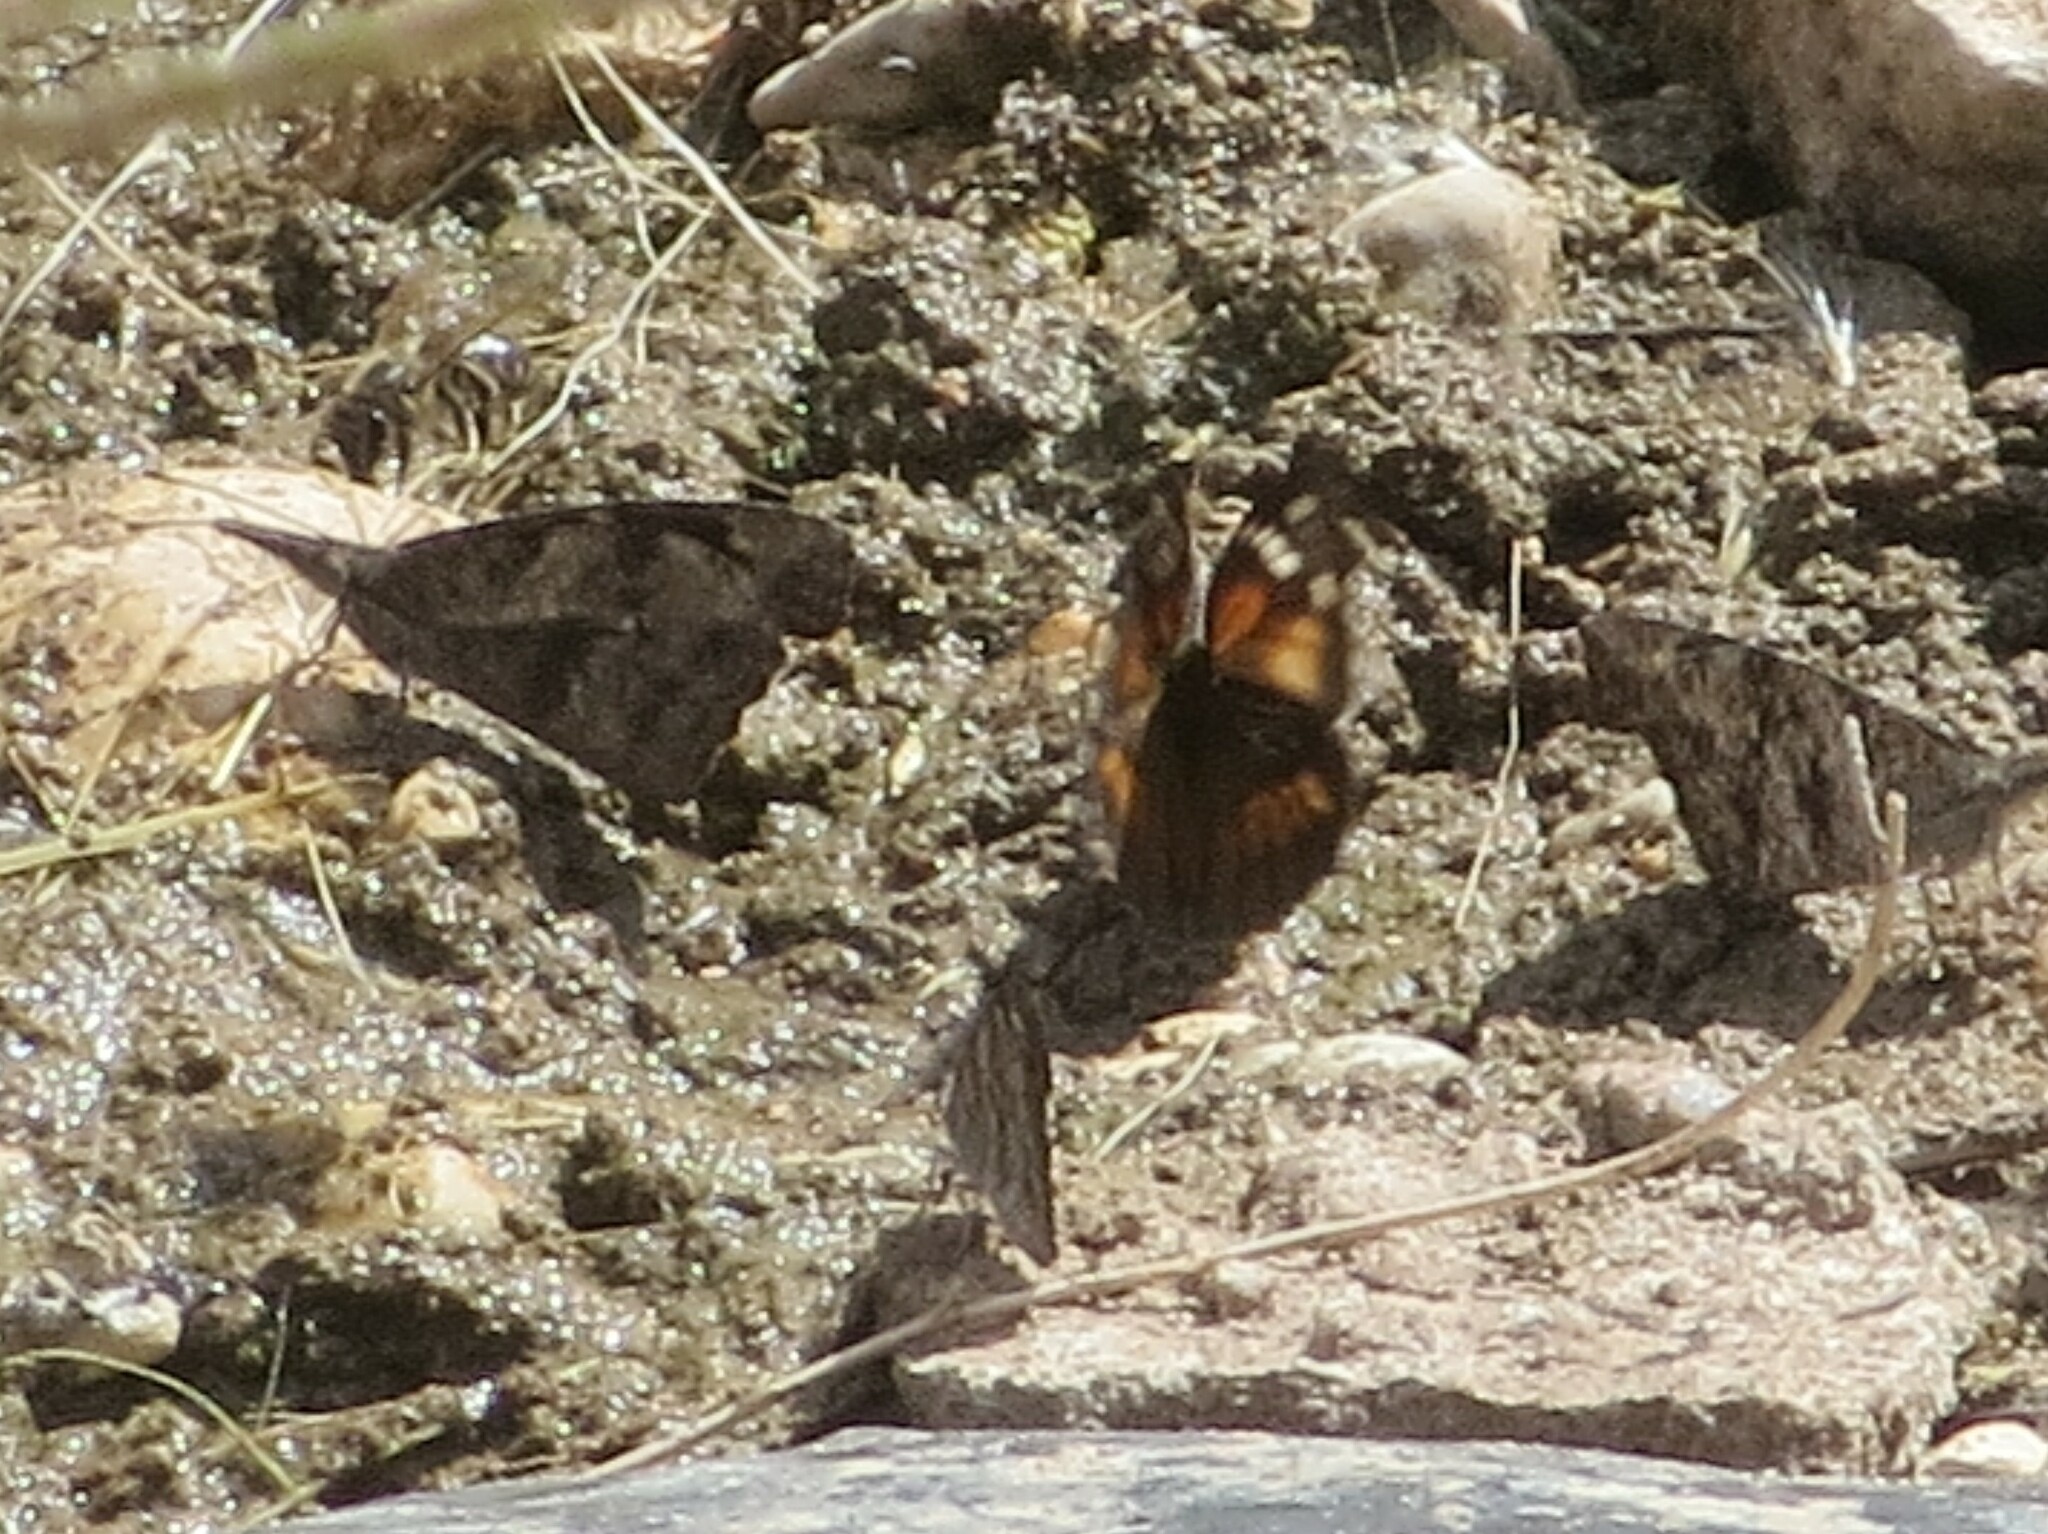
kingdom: Animalia
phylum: Arthropoda
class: Insecta
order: Lepidoptera
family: Nymphalidae
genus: Libytheana
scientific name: Libytheana carinenta
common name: American snout
